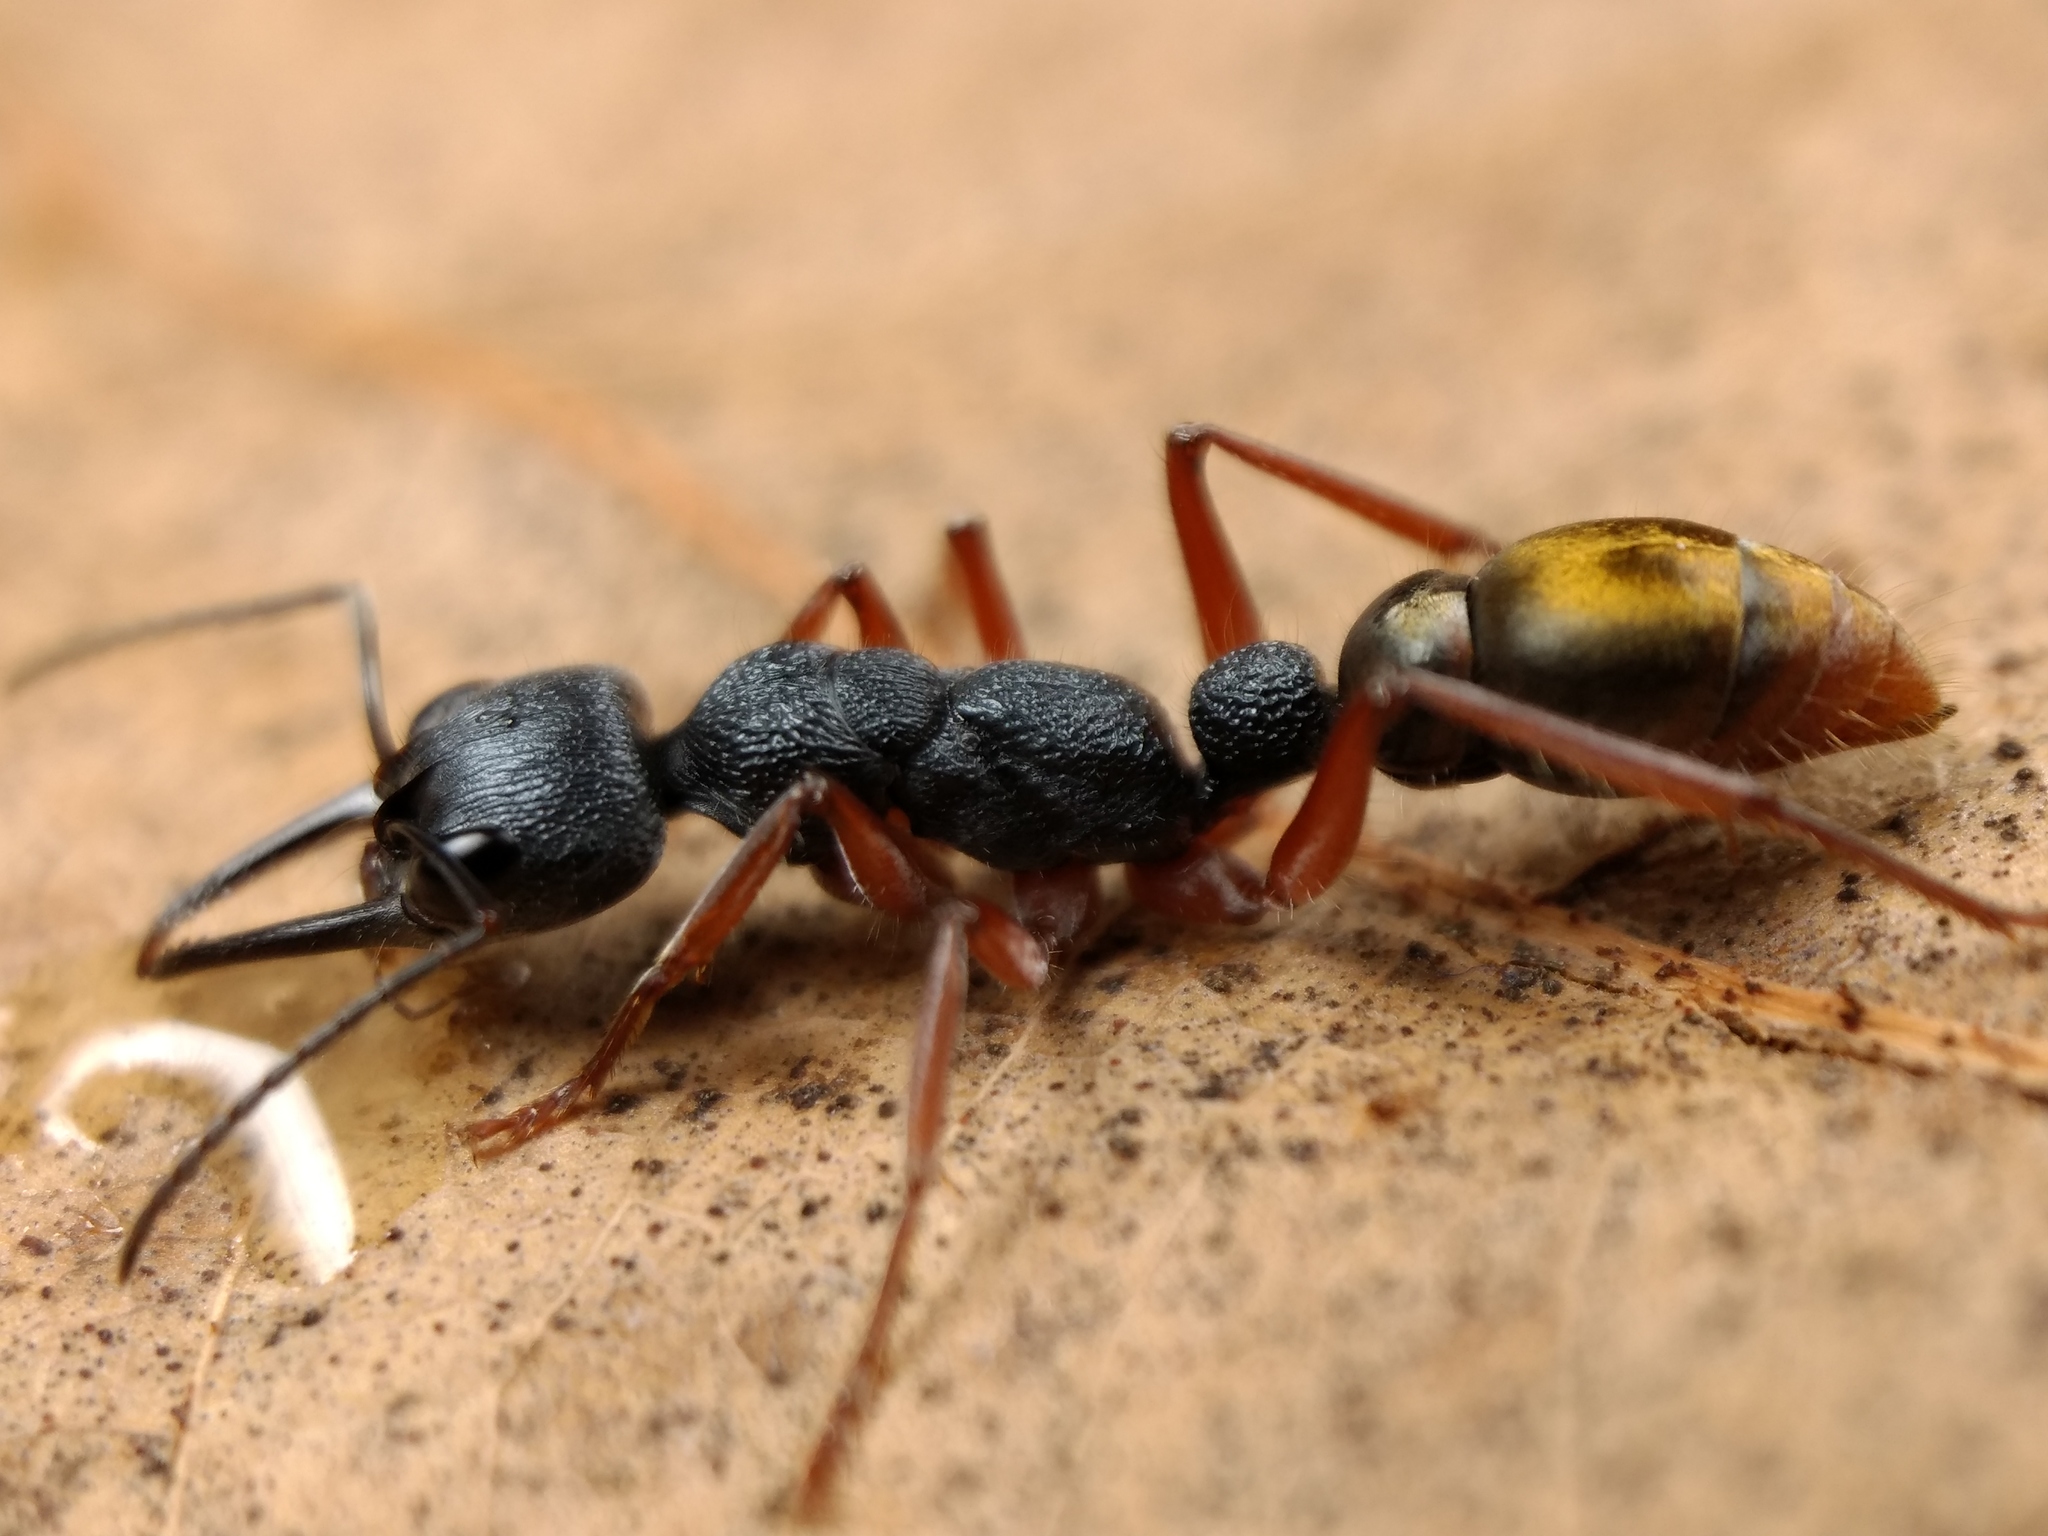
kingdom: Animalia
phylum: Arthropoda
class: Insecta
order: Hymenoptera
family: Formicidae
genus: Myrmecia
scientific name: Myrmecia fulviculis
